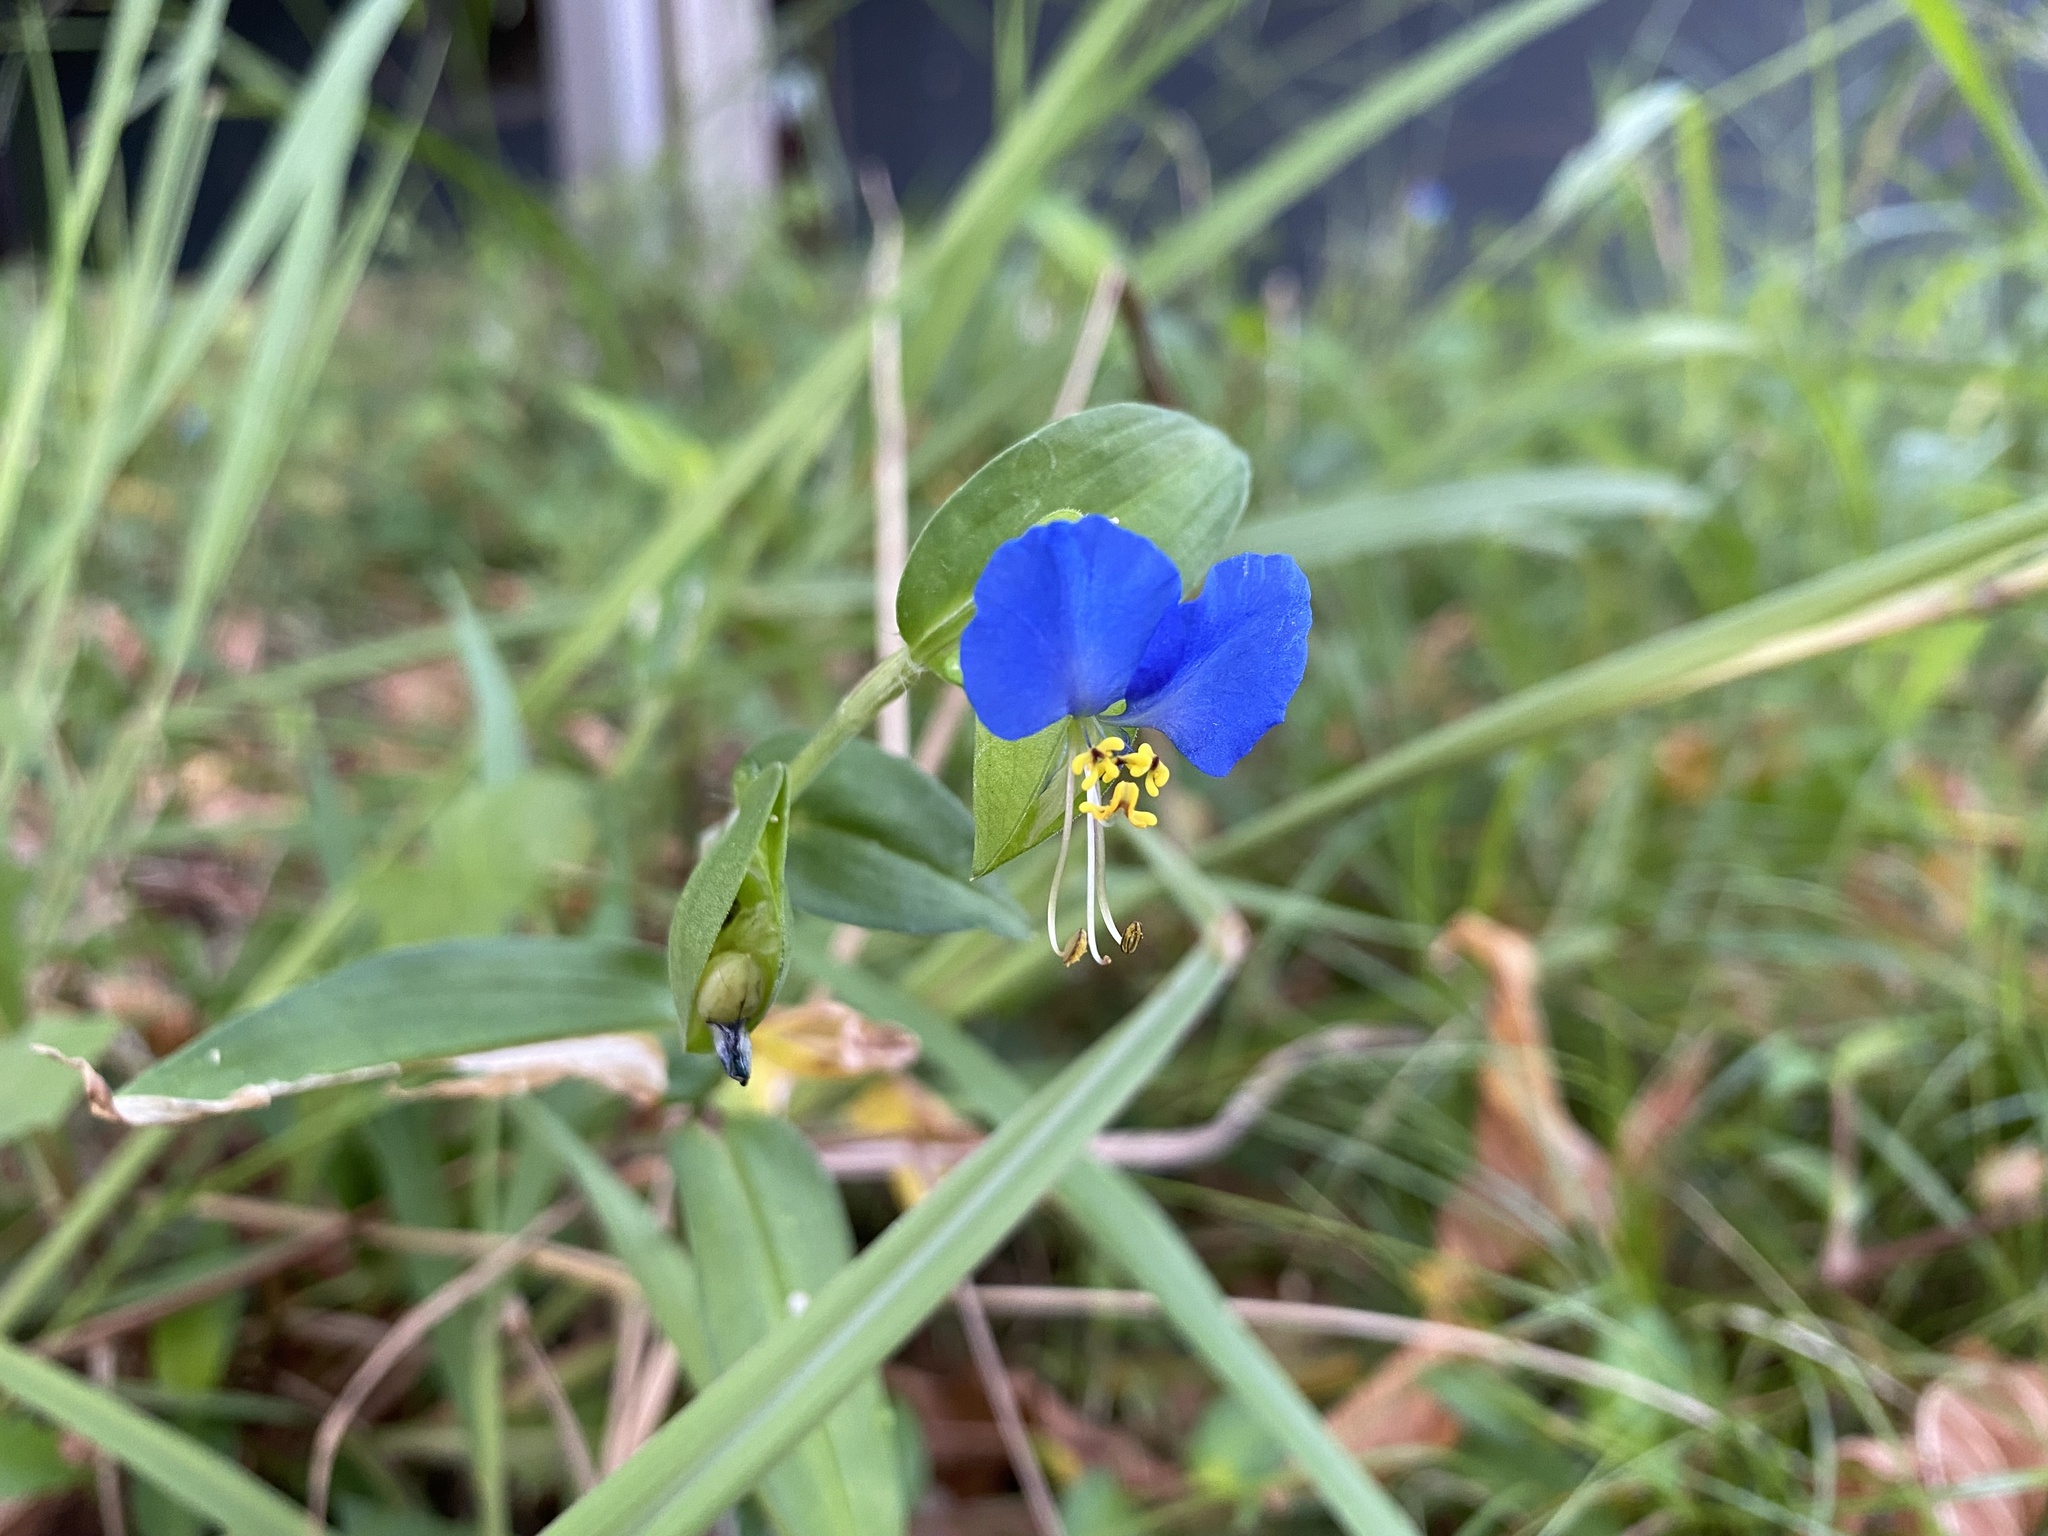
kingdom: Plantae
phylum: Tracheophyta
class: Liliopsida
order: Commelinales
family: Commelinaceae
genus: Commelina
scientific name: Commelina communis
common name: Asiatic dayflower
